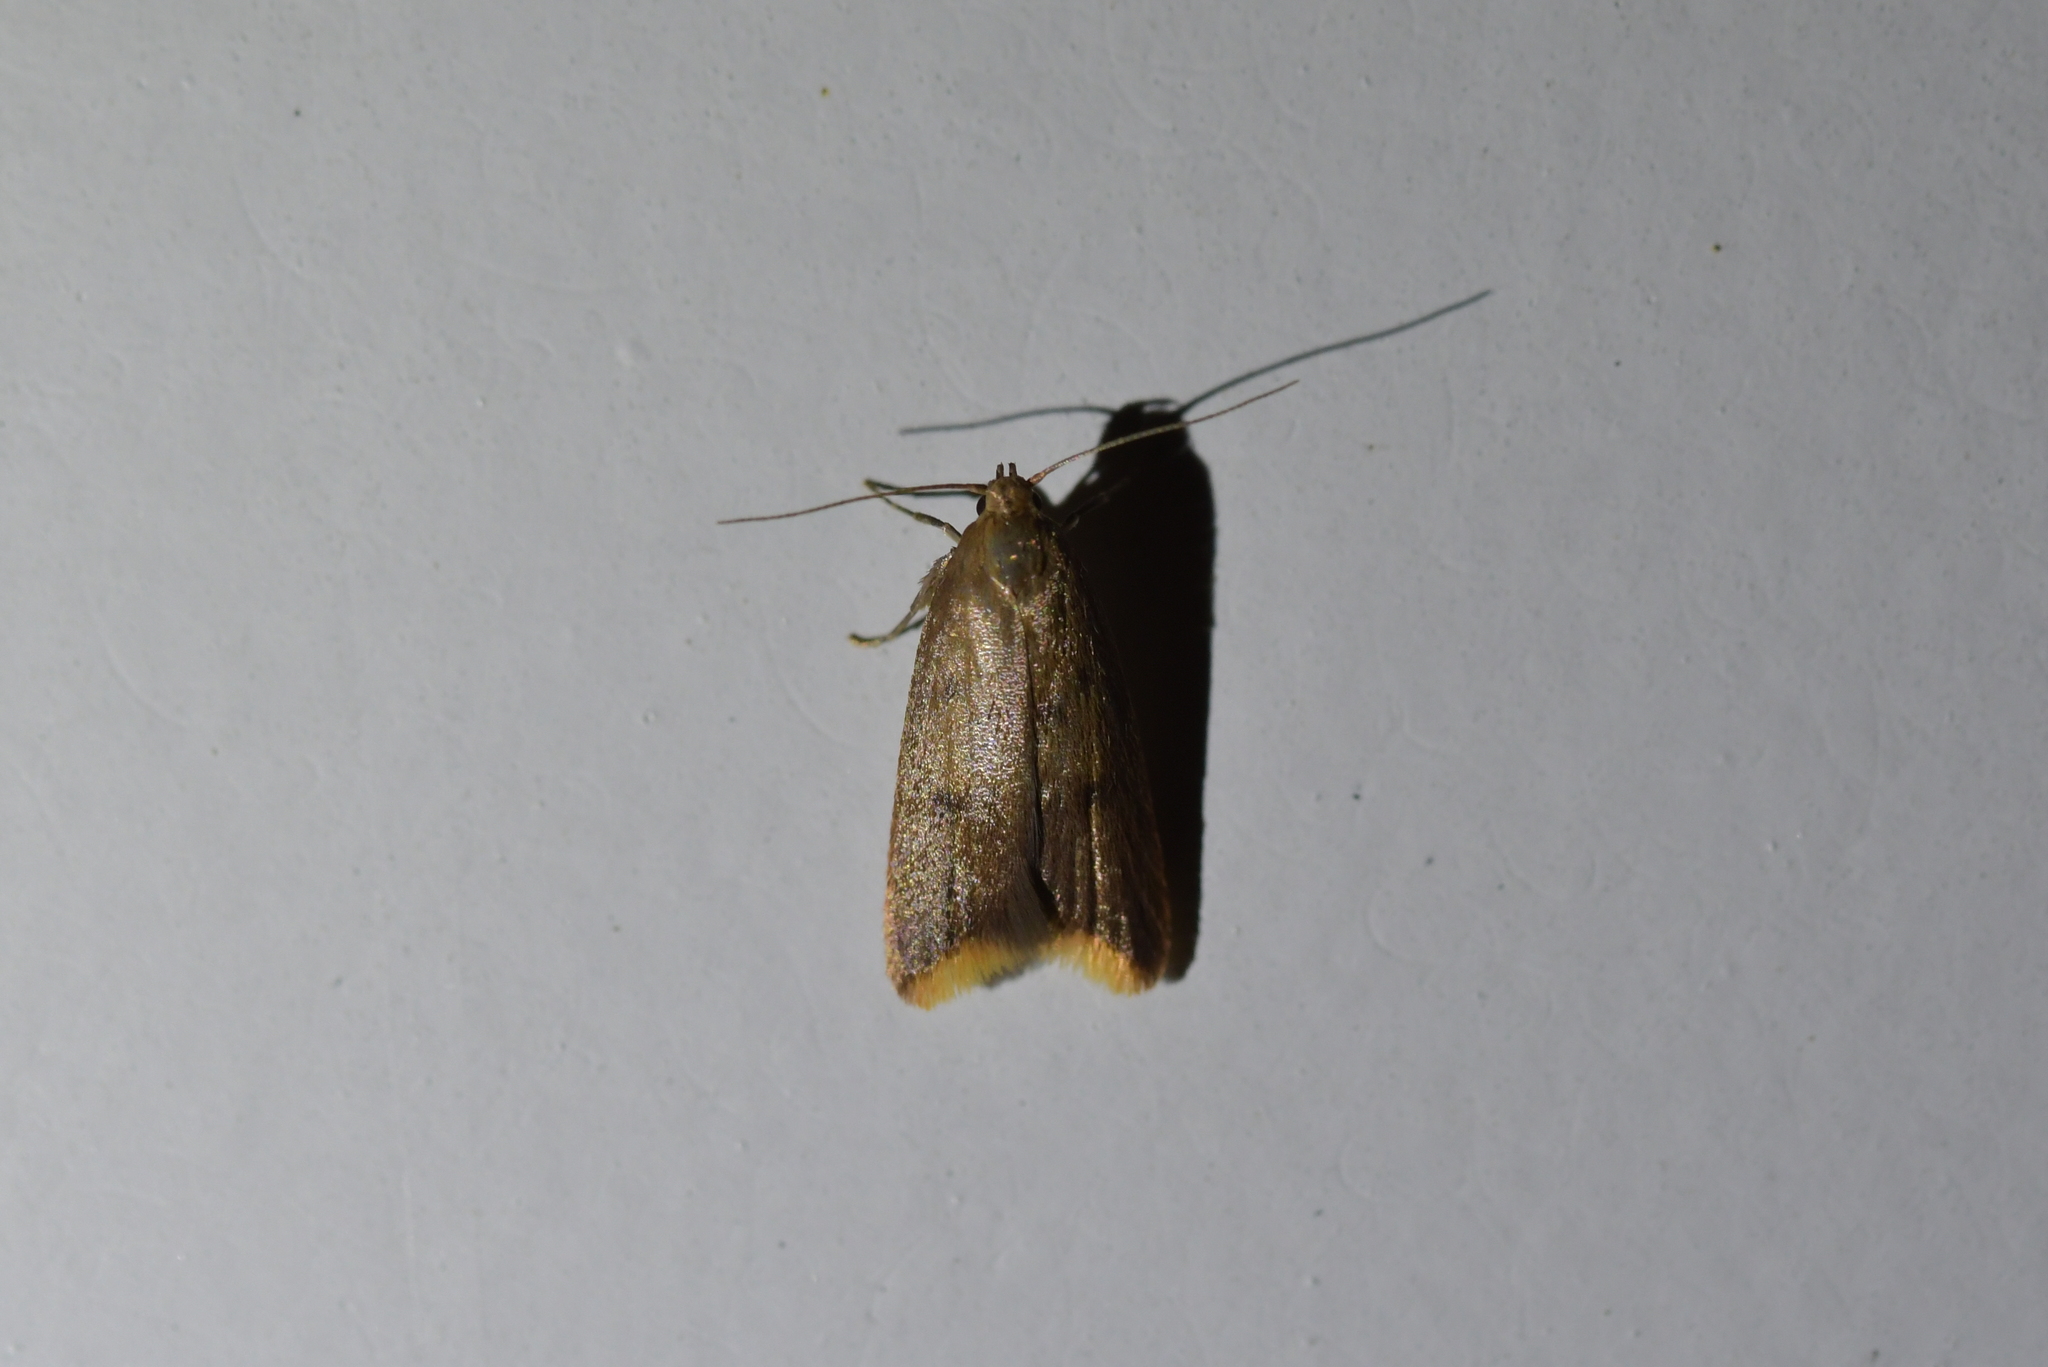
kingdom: Animalia
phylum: Arthropoda
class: Insecta
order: Lepidoptera
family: Oecophoridae
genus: Tachystola
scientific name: Tachystola acroxantha
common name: Ruddy streak
